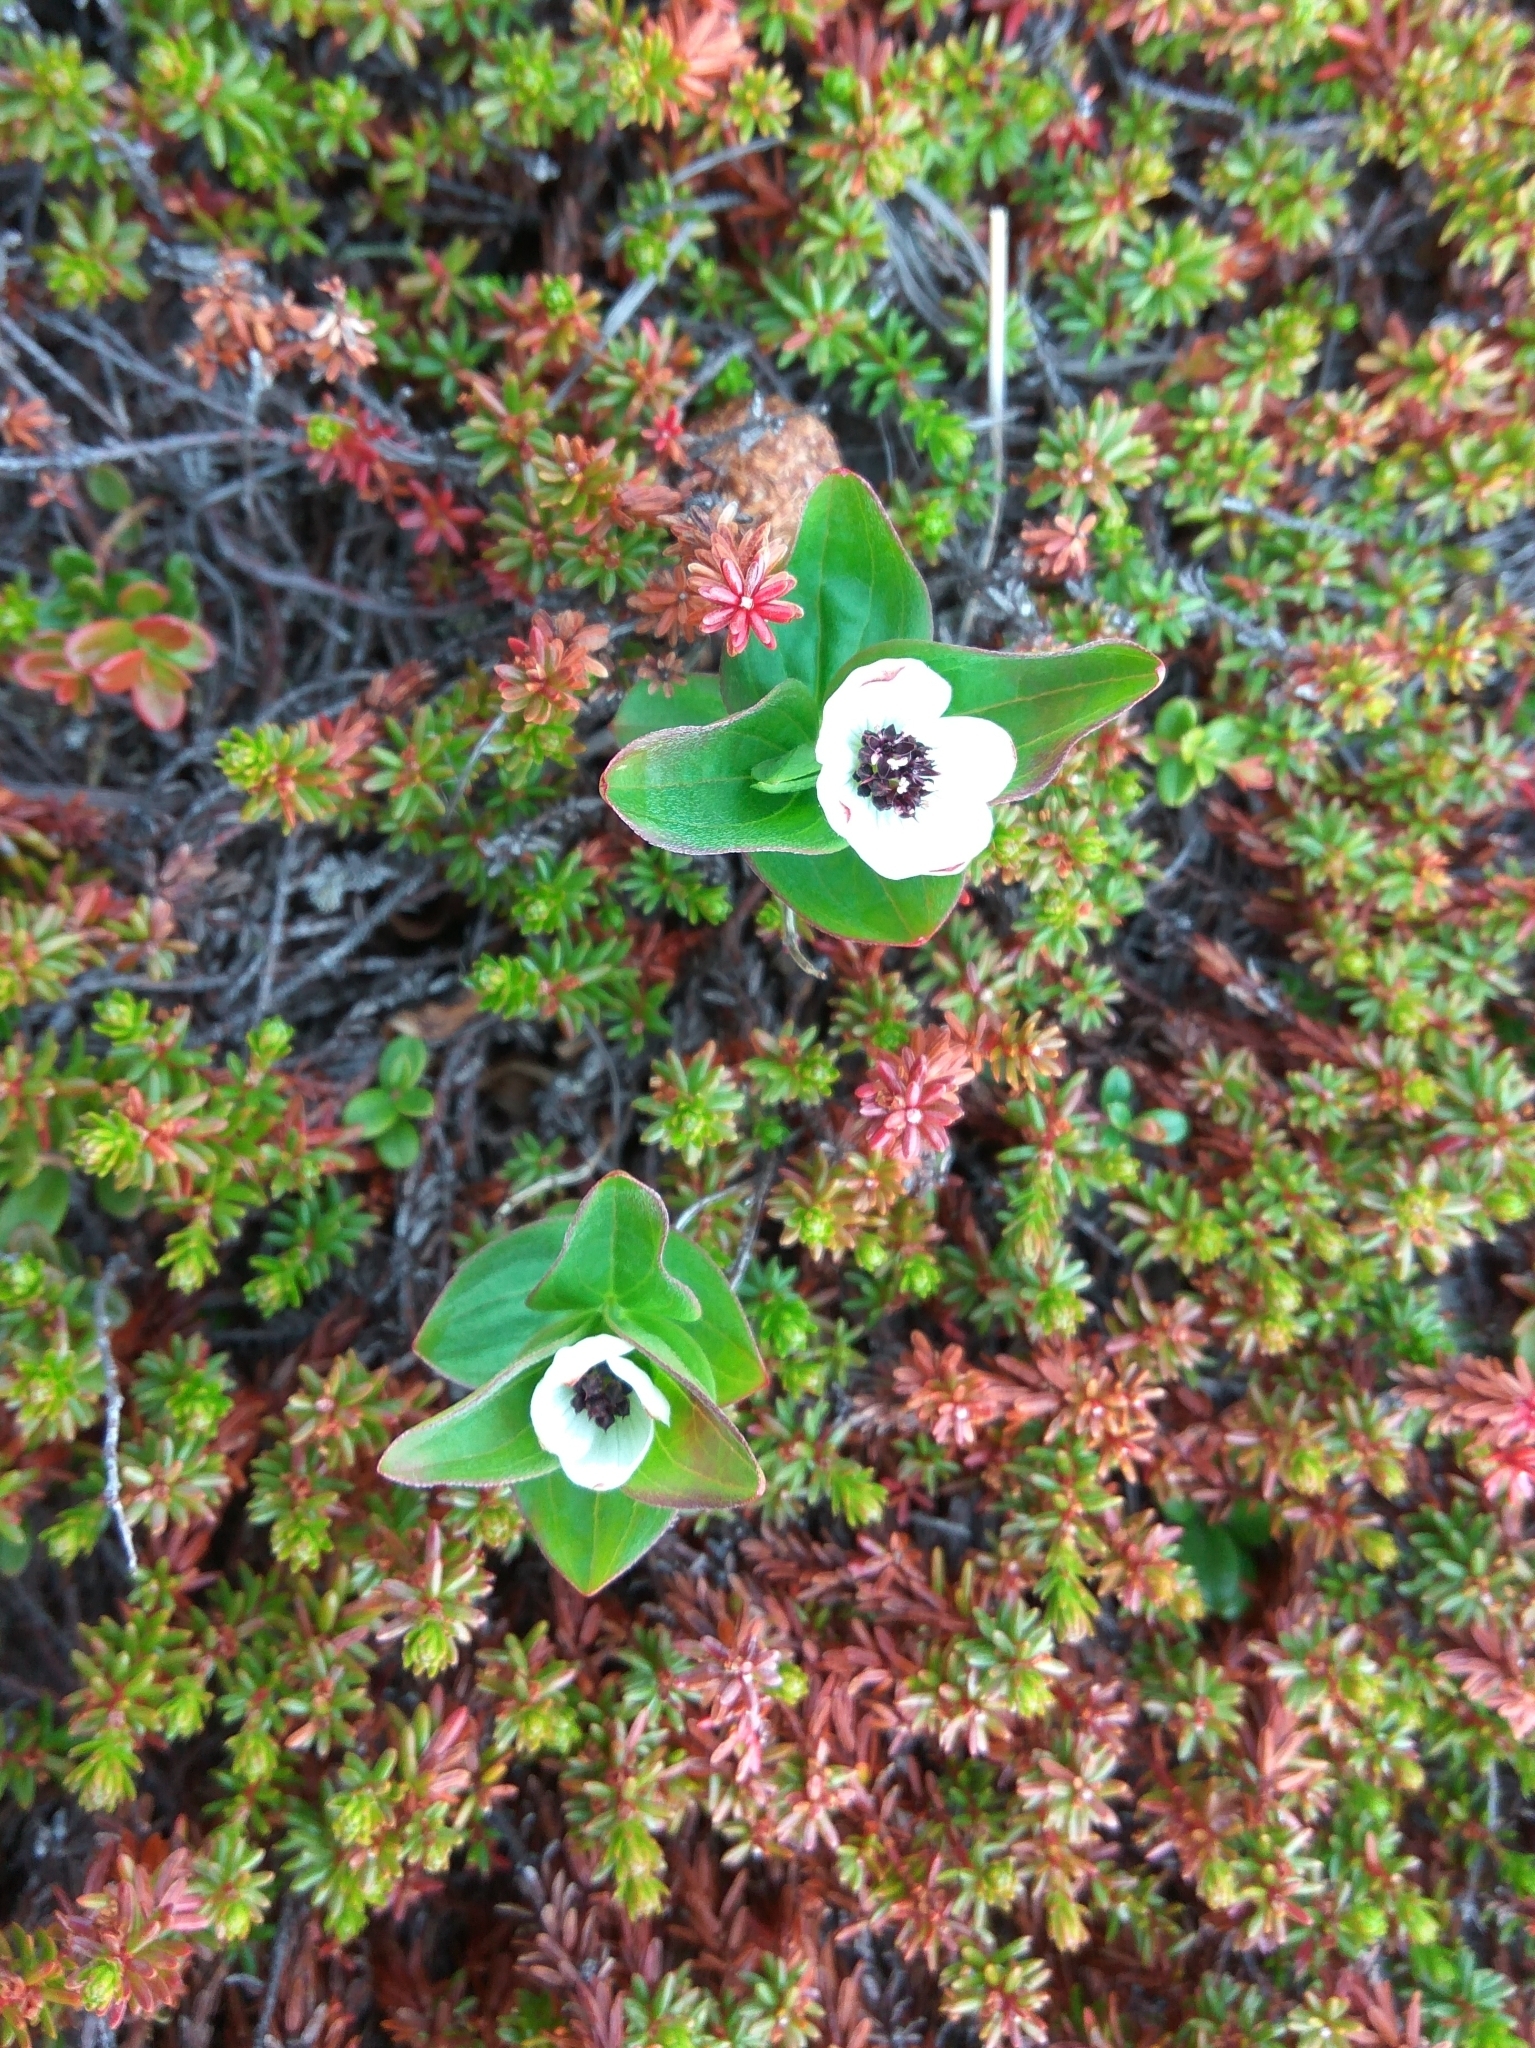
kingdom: Plantae
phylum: Tracheophyta
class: Magnoliopsida
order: Cornales
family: Cornaceae
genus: Cornus
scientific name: Cornus suecica
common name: Dwarf cornel
